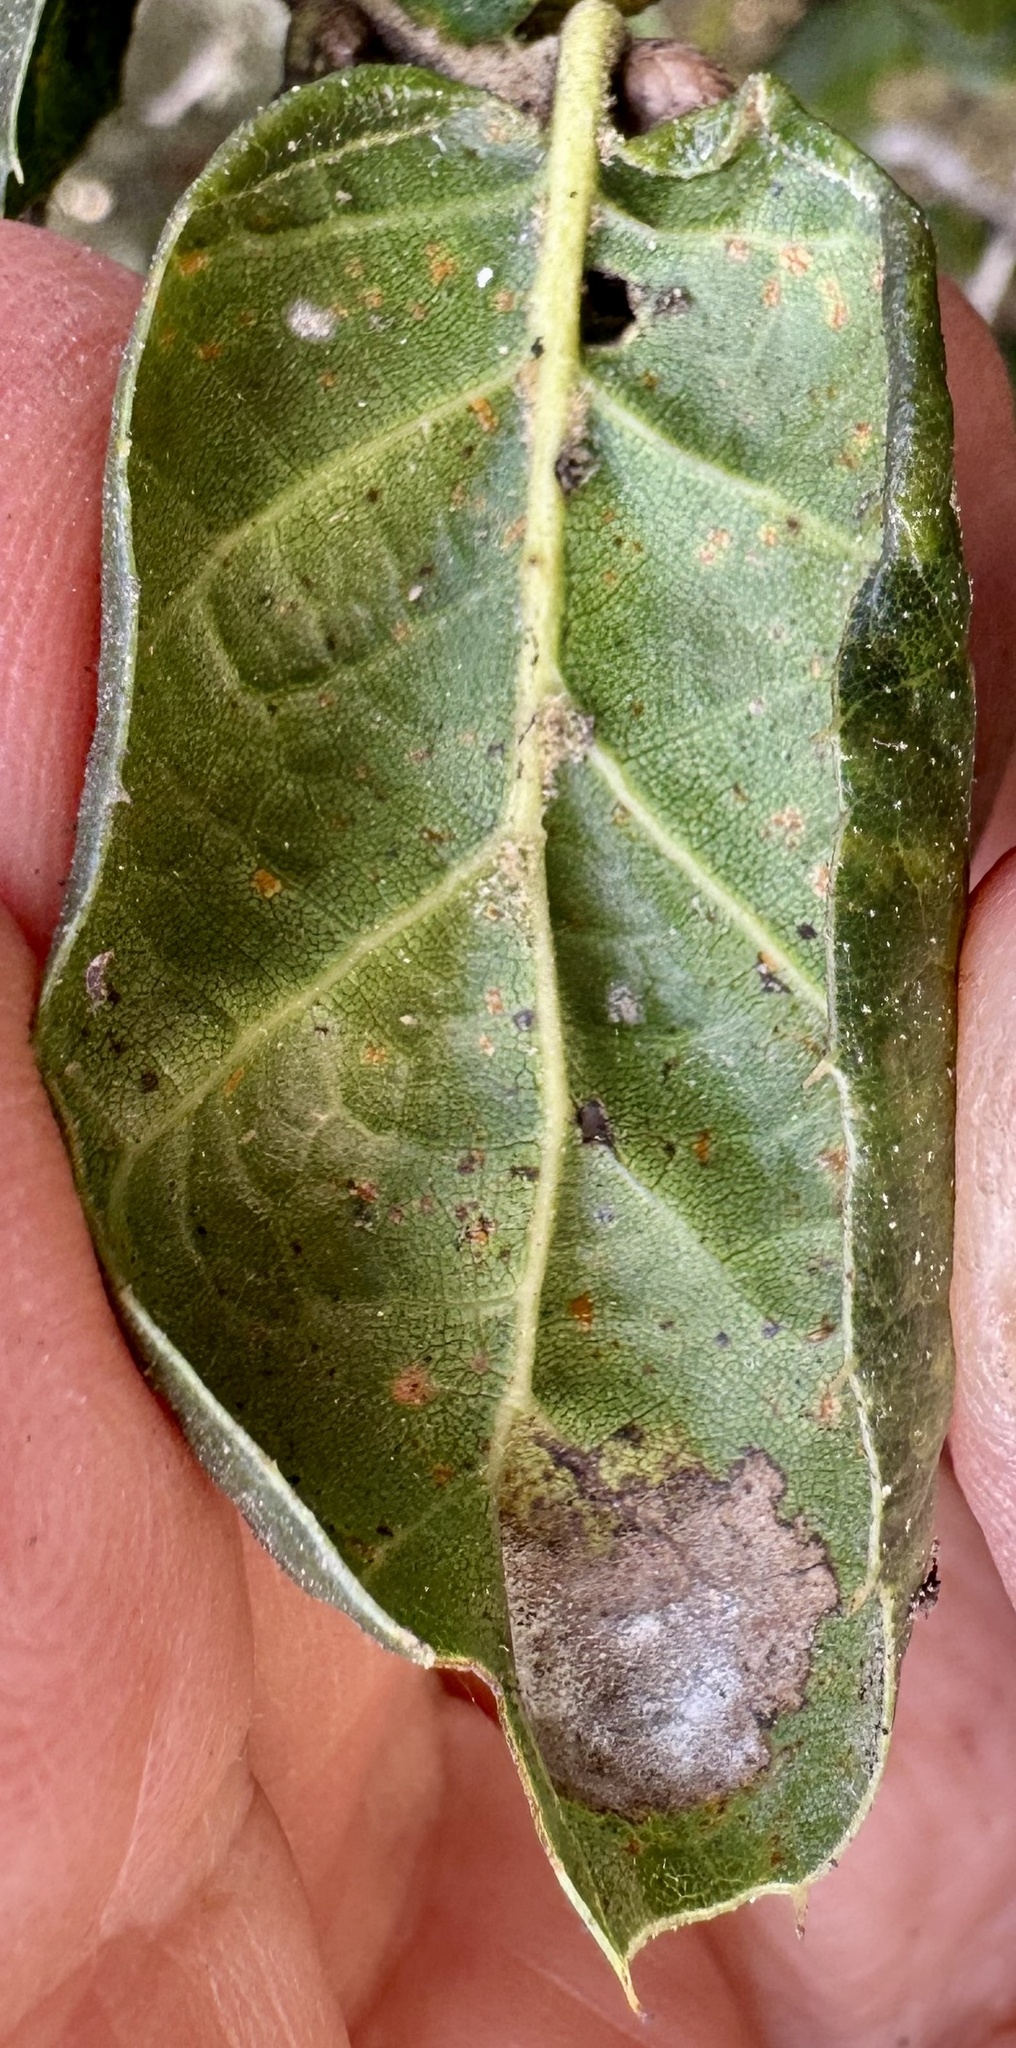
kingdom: Plantae
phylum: Tracheophyta
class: Magnoliopsida
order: Fagales
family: Fagaceae
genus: Quercus
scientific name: Quercus agrifolia
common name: California live oak
